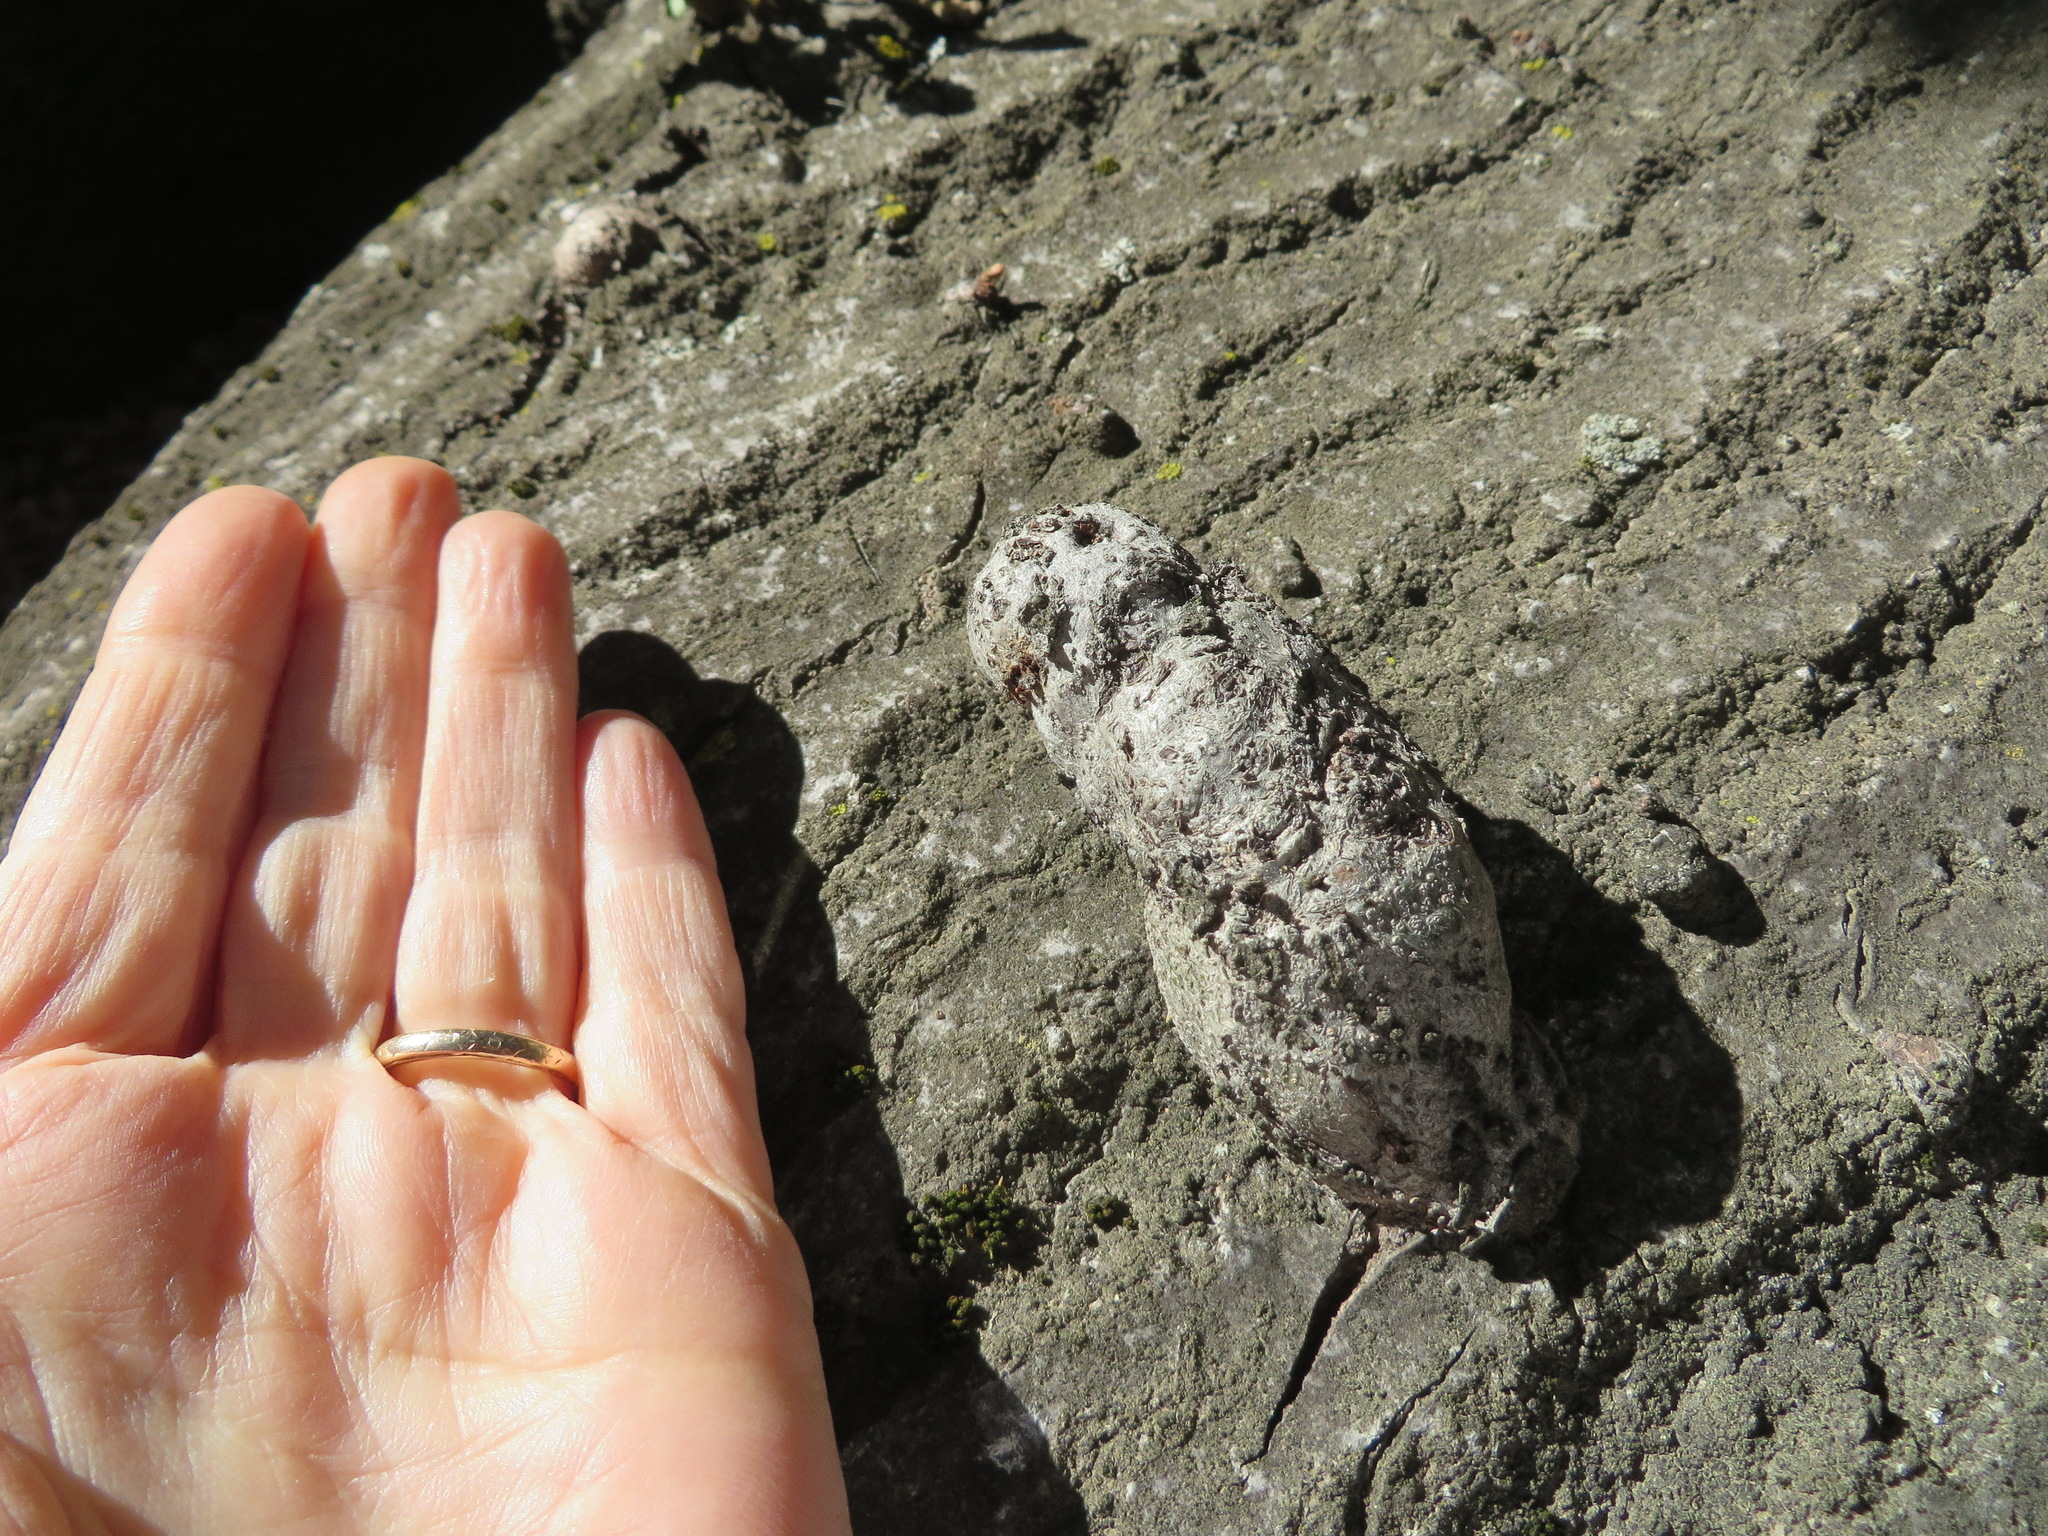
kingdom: Plantae
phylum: Tracheophyta
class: Magnoliopsida
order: Fagales
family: Fagaceae
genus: Quercus
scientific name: Quercus agrifolia
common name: California live oak
